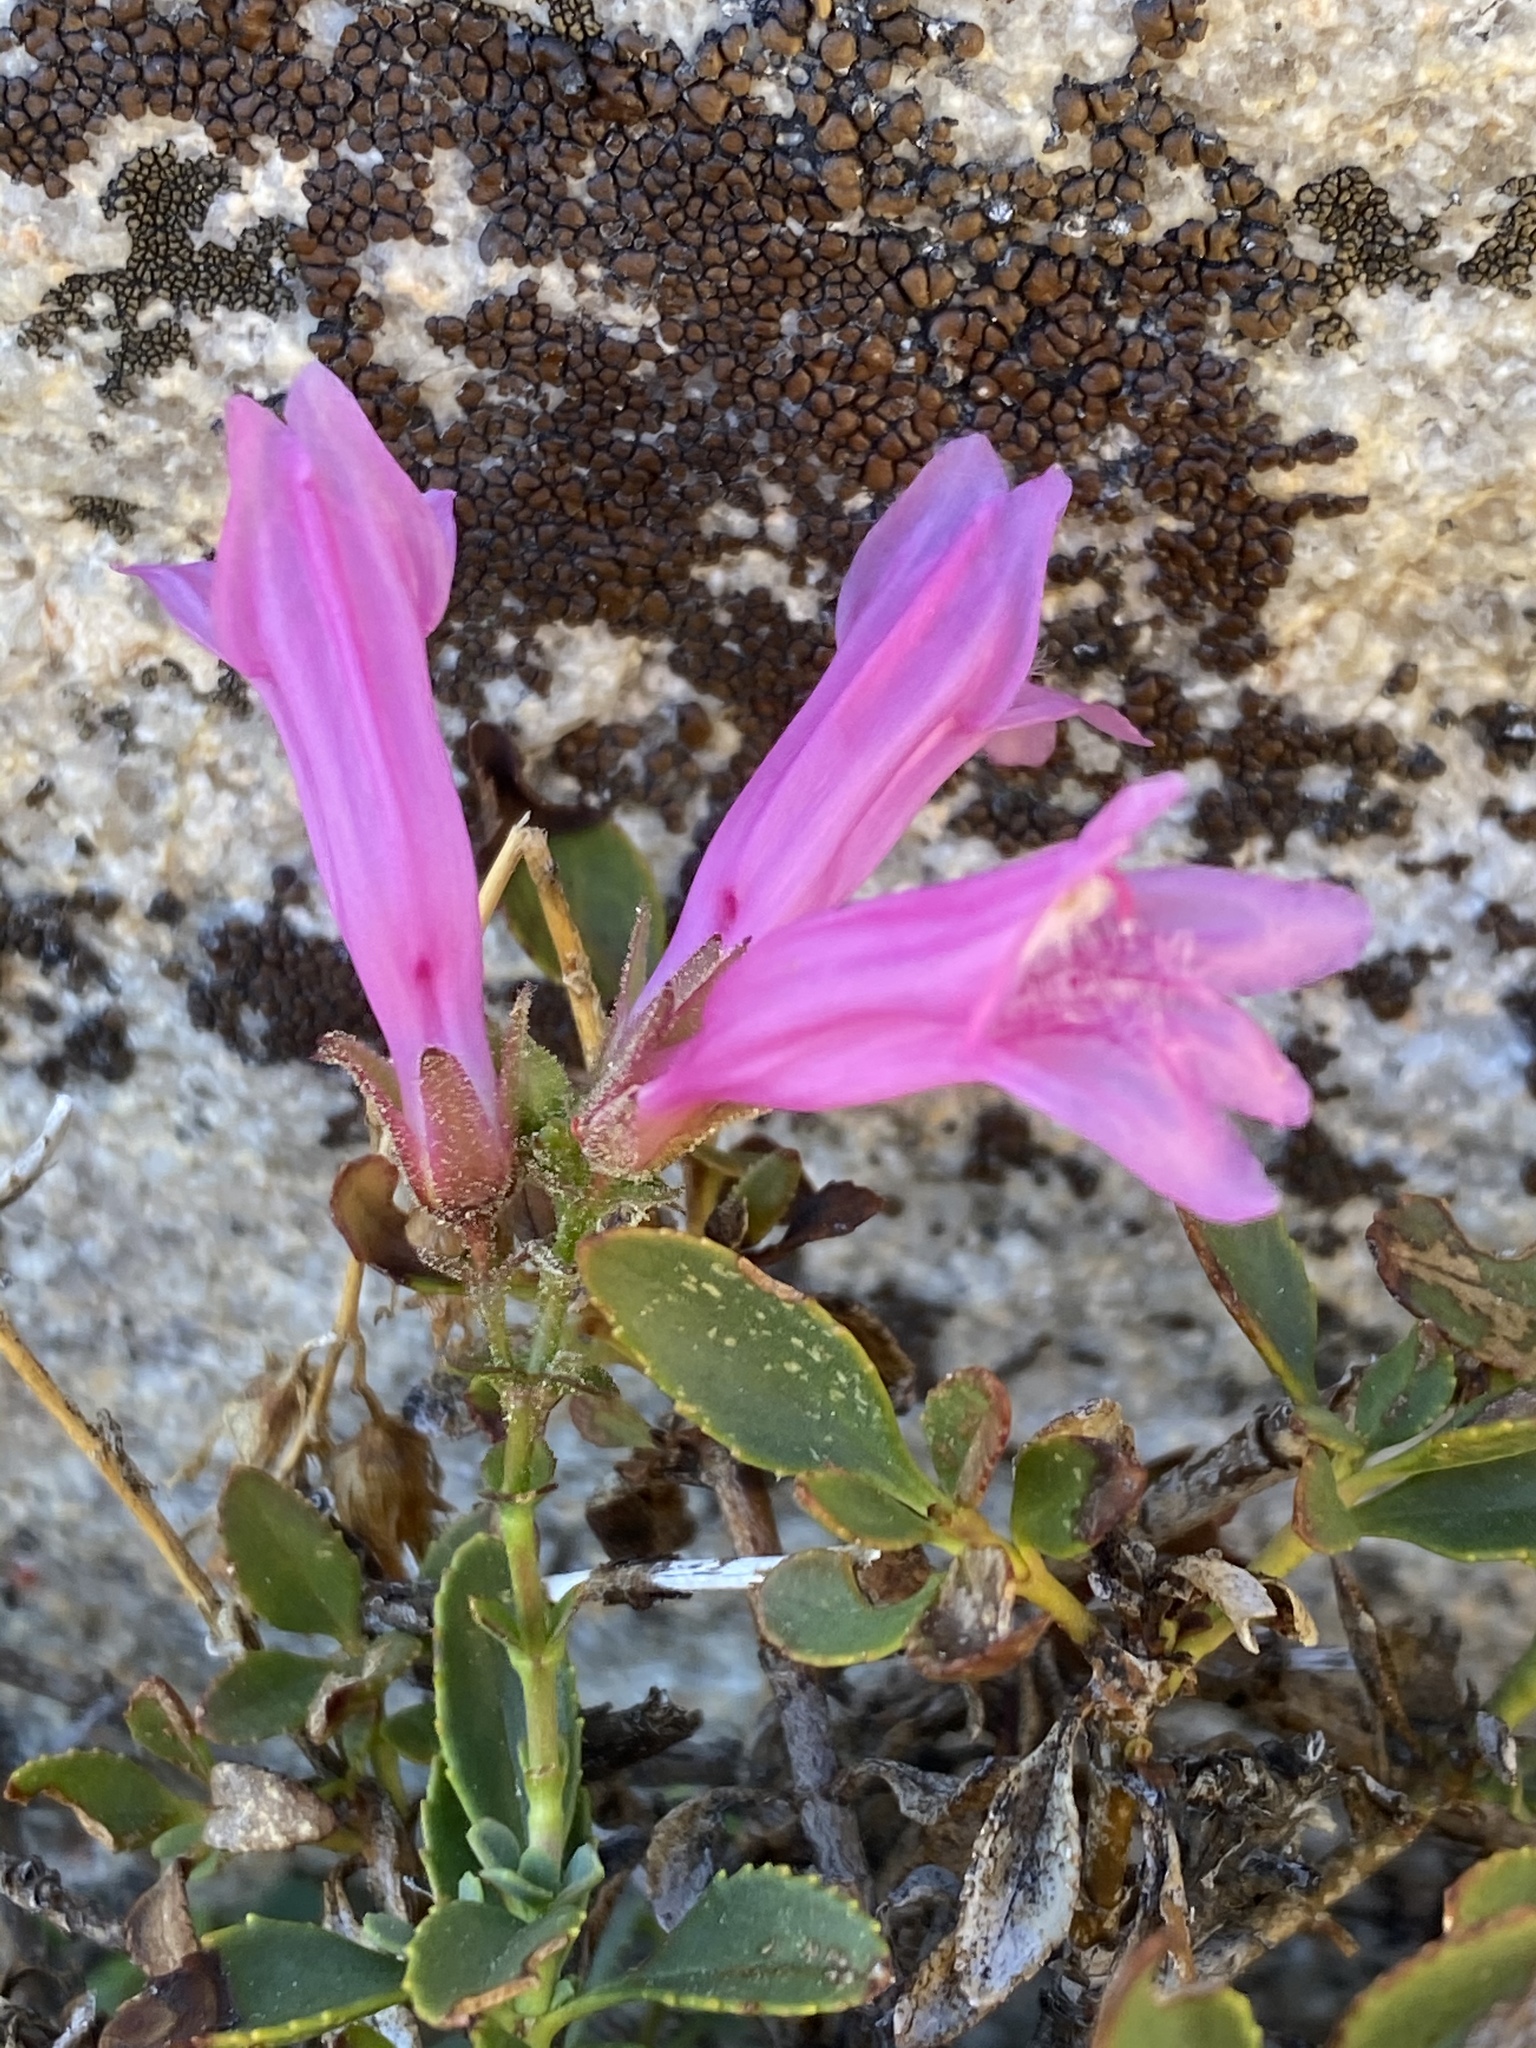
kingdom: Plantae
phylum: Tracheophyta
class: Magnoliopsida
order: Lamiales
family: Plantaginaceae
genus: Penstemon
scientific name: Penstemon newberryi
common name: Mountain-pride
